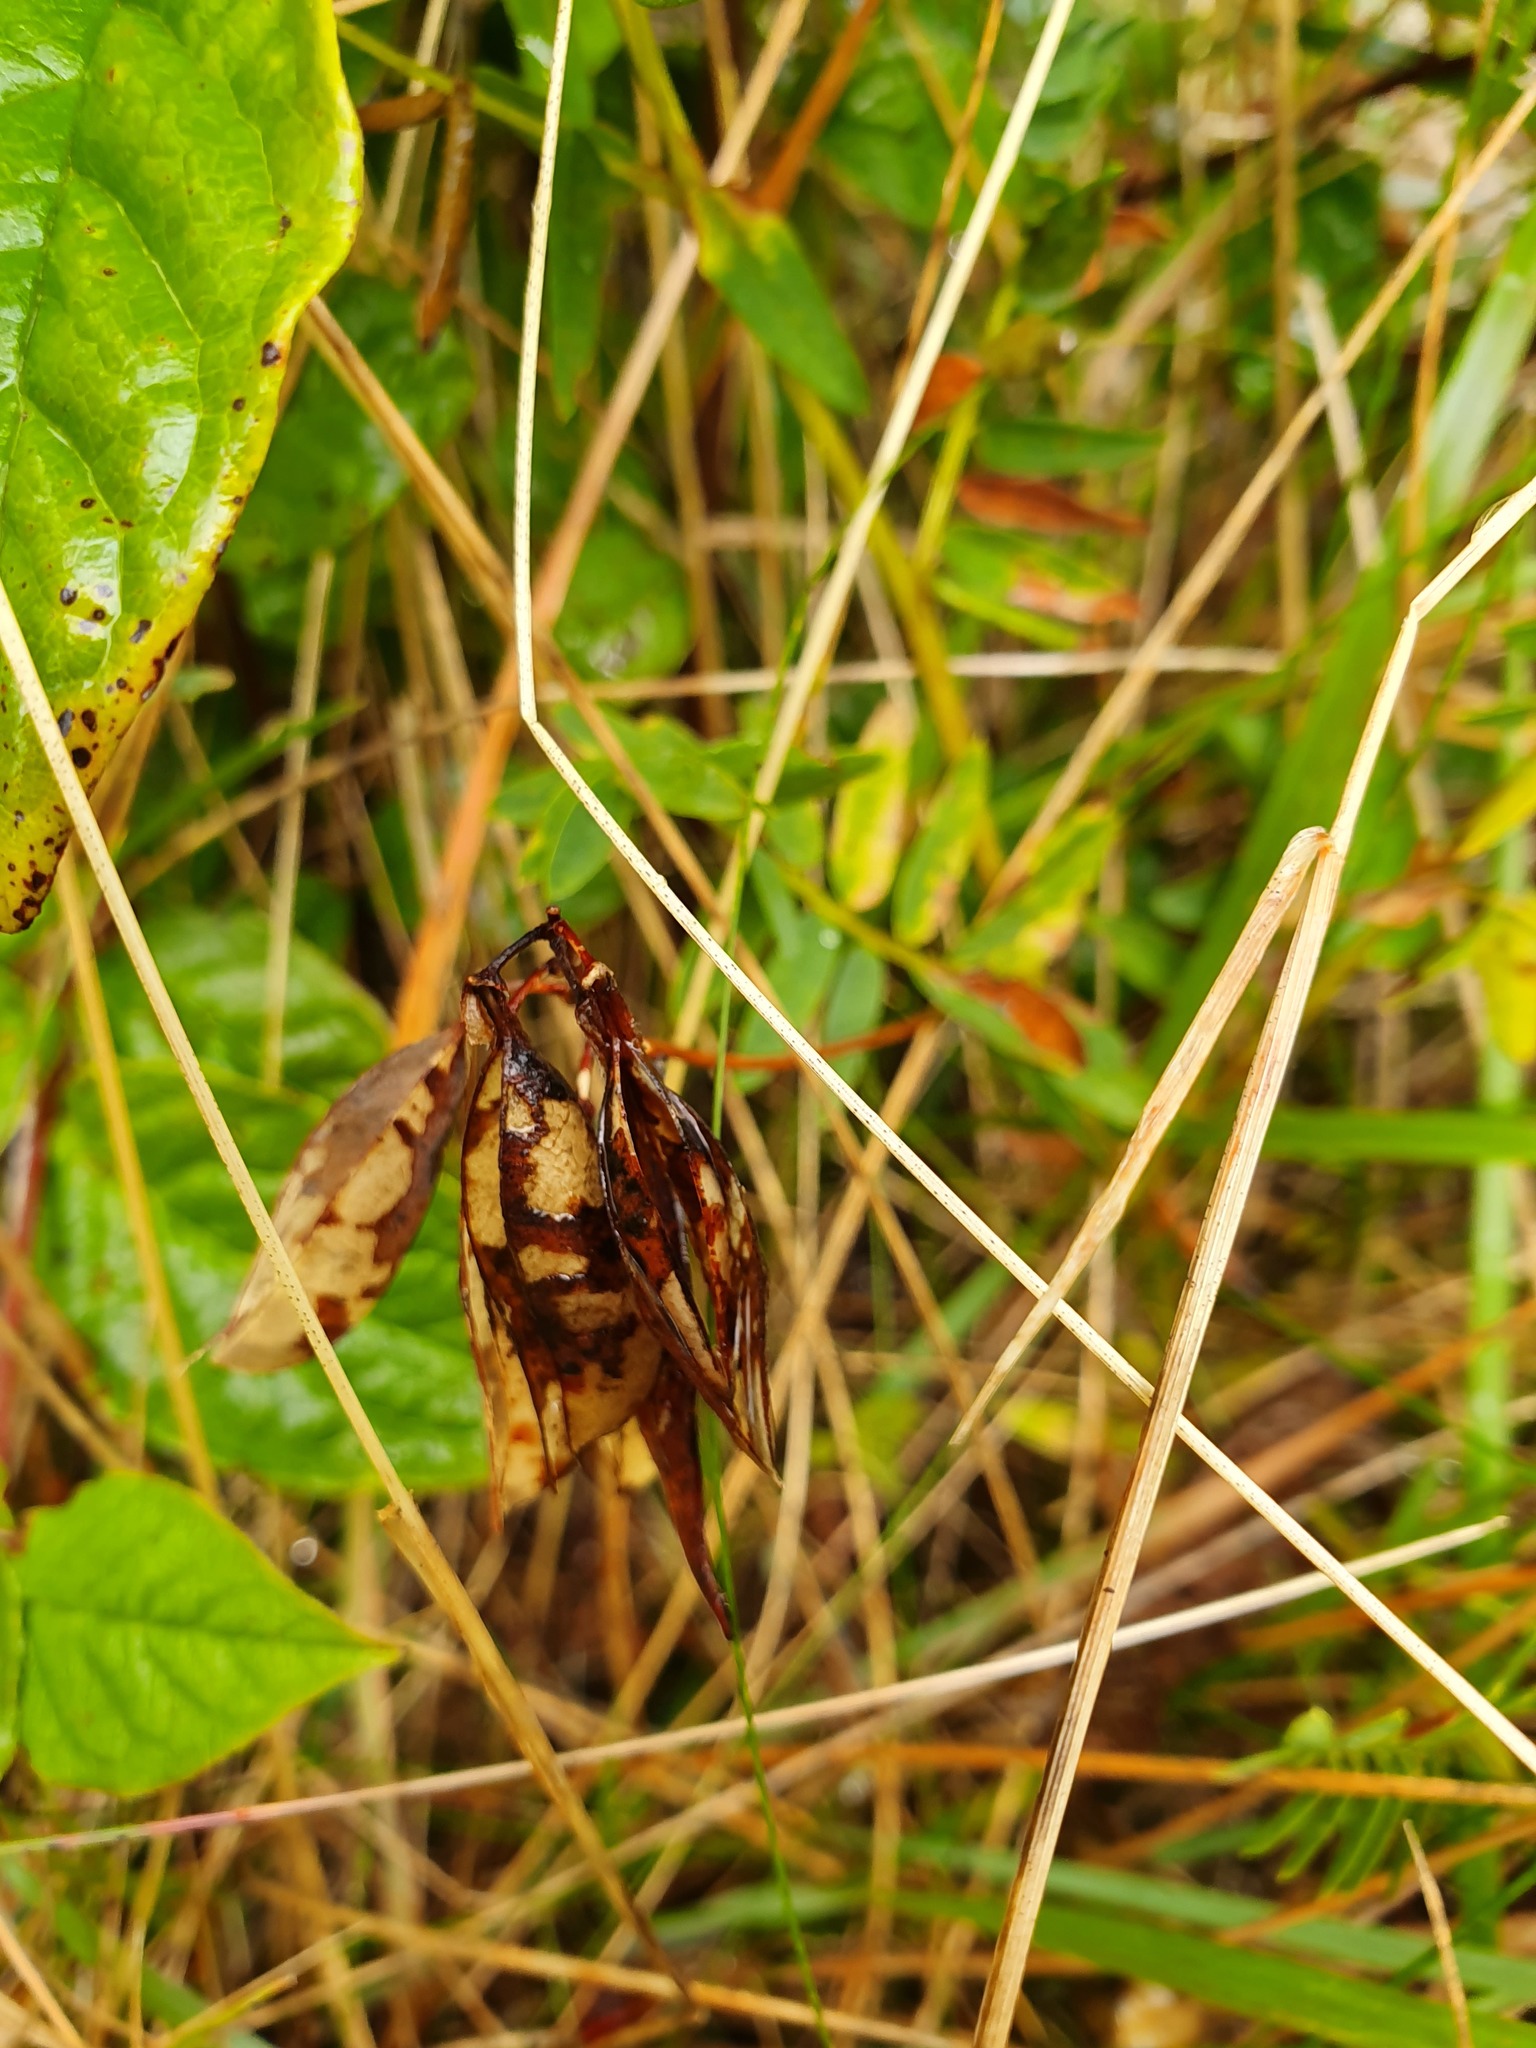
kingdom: Plantae
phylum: Tracheophyta
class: Magnoliopsida
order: Fabales
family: Fabaceae
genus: Vicia
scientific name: Vicia orobus
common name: Wood bitter-vetch
